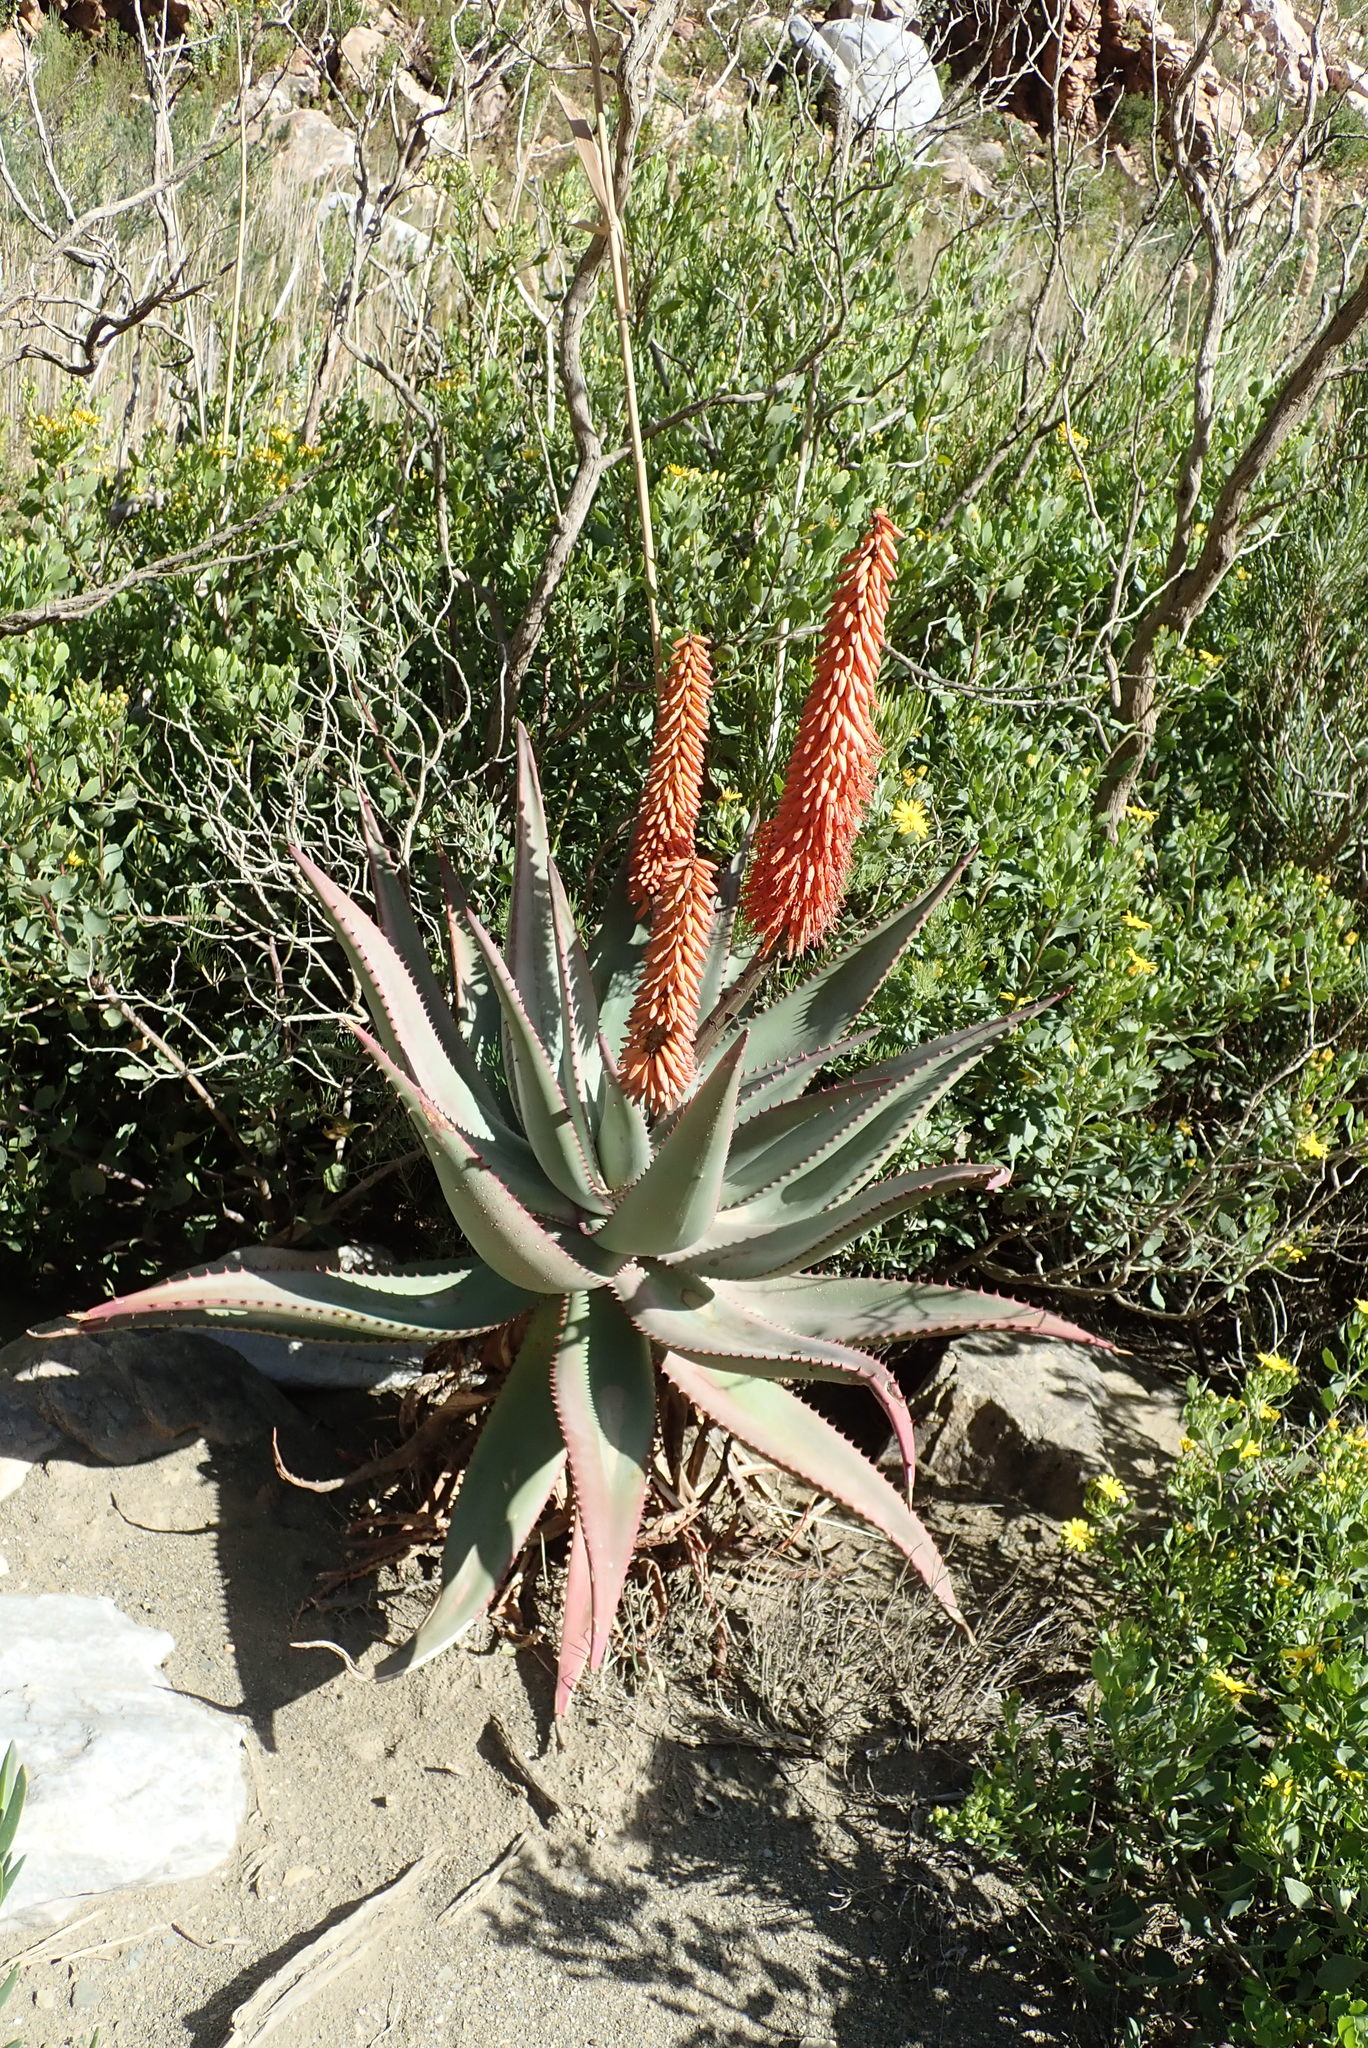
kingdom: Plantae
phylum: Tracheophyta
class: Liliopsida
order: Asparagales
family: Asphodelaceae
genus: Aloe
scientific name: Aloe ferox
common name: Bitter aloe
